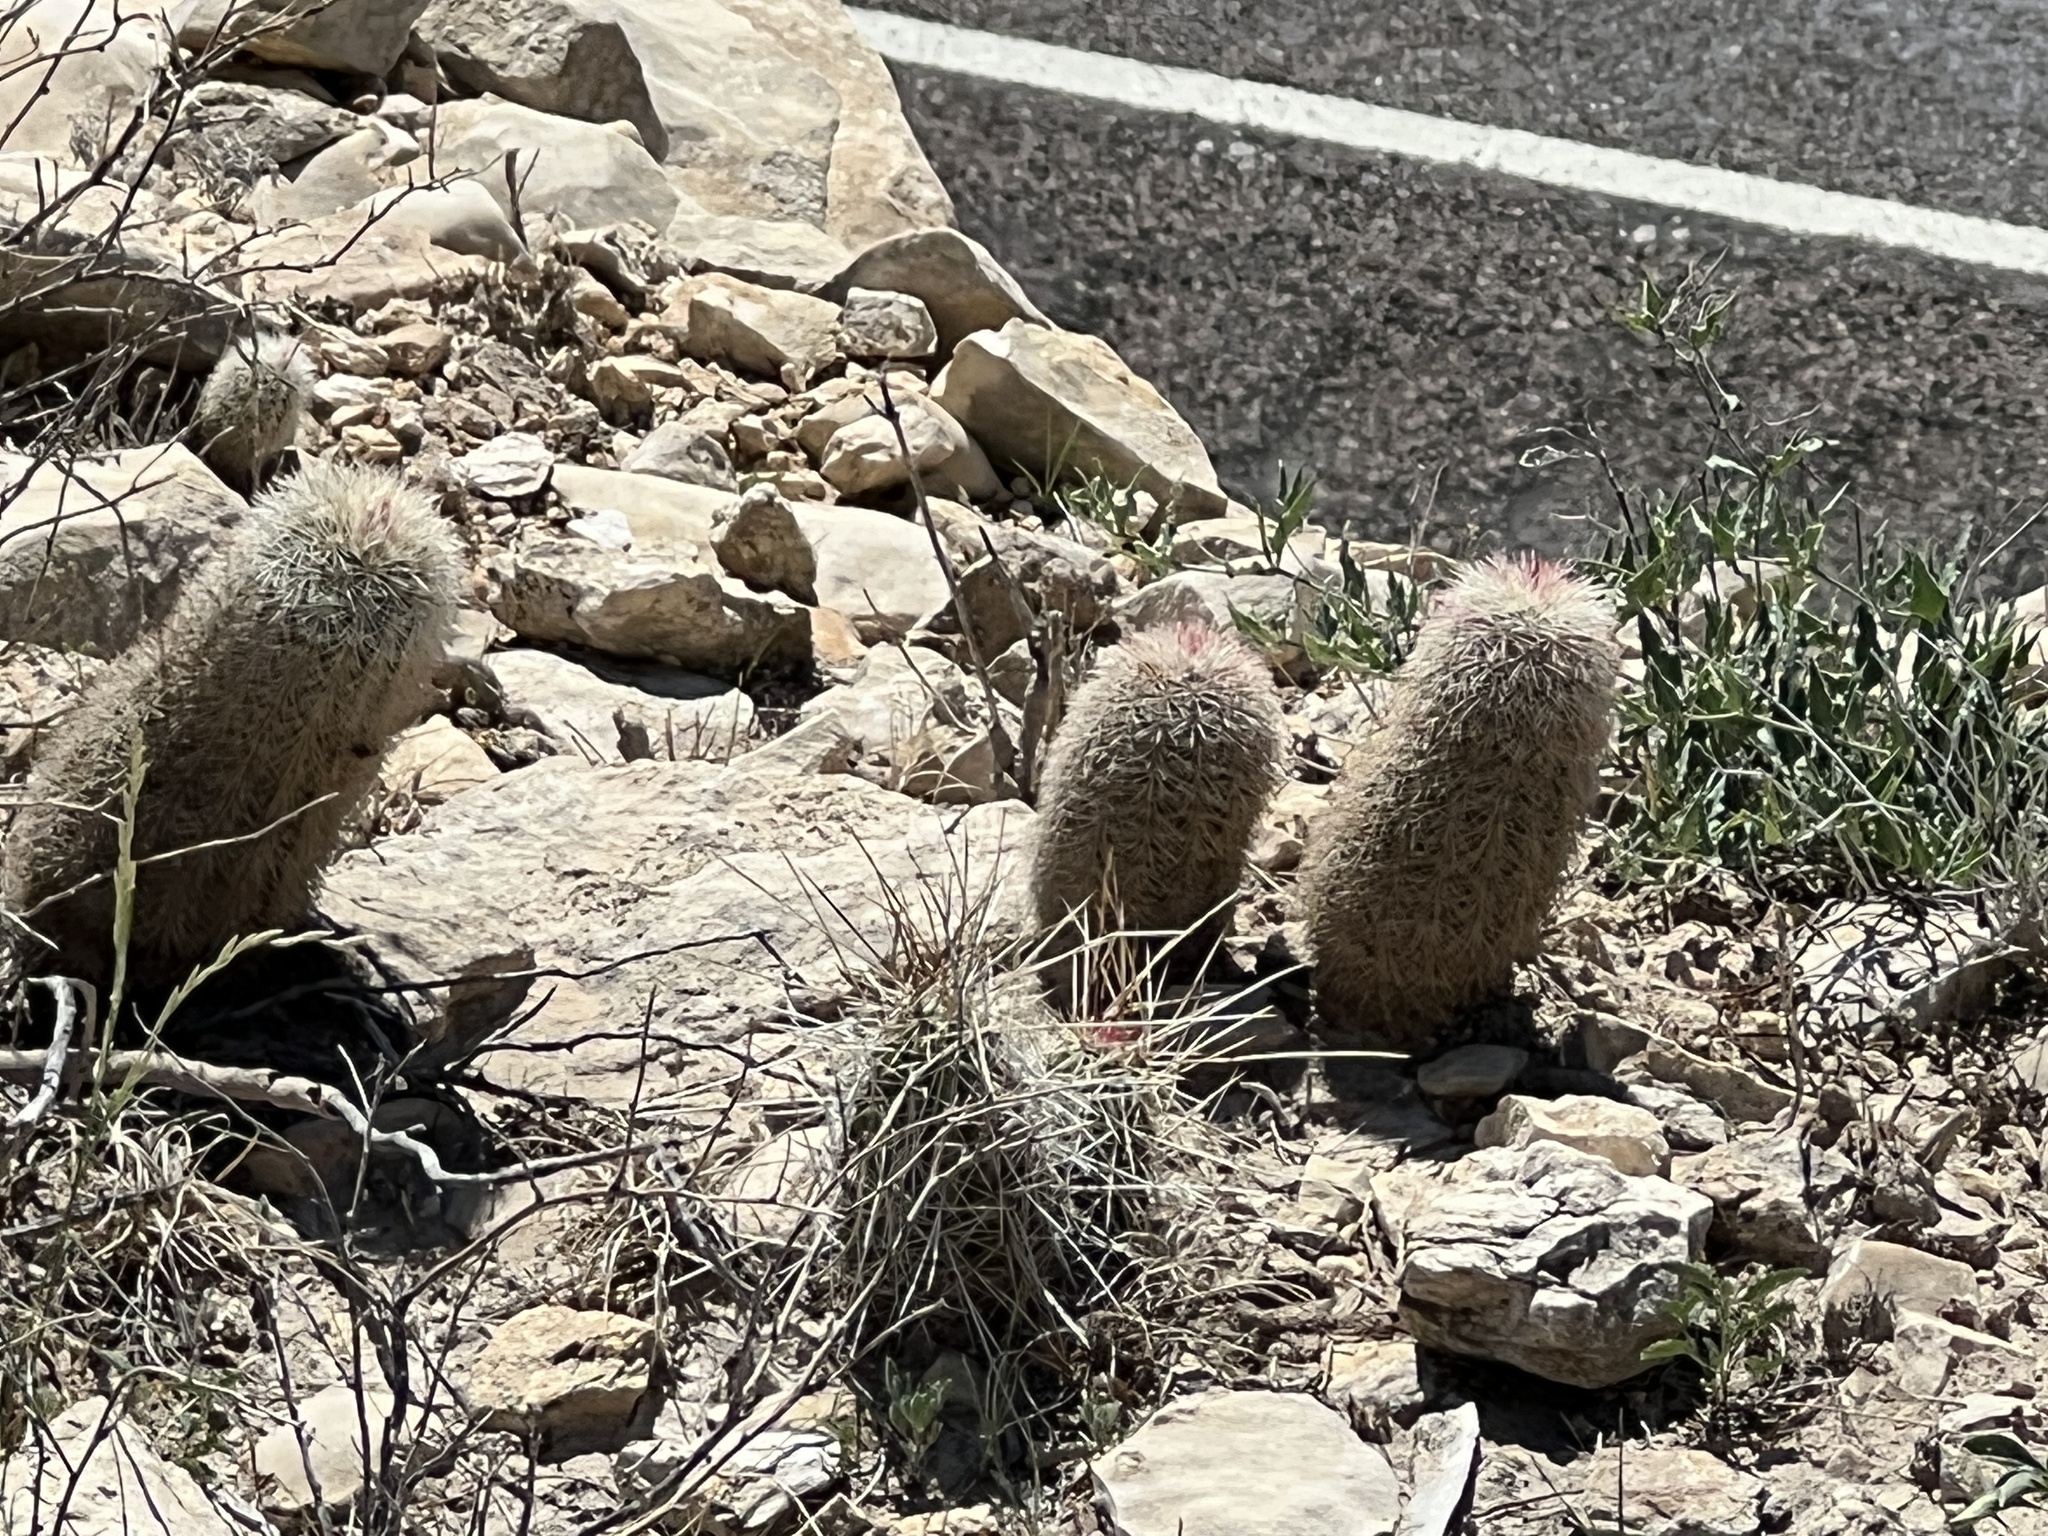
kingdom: Plantae
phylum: Tracheophyta
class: Magnoliopsida
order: Caryophyllales
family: Cactaceae
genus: Echinocereus
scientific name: Echinocereus dasyacanthus
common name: Spiny hedgehog cactus
